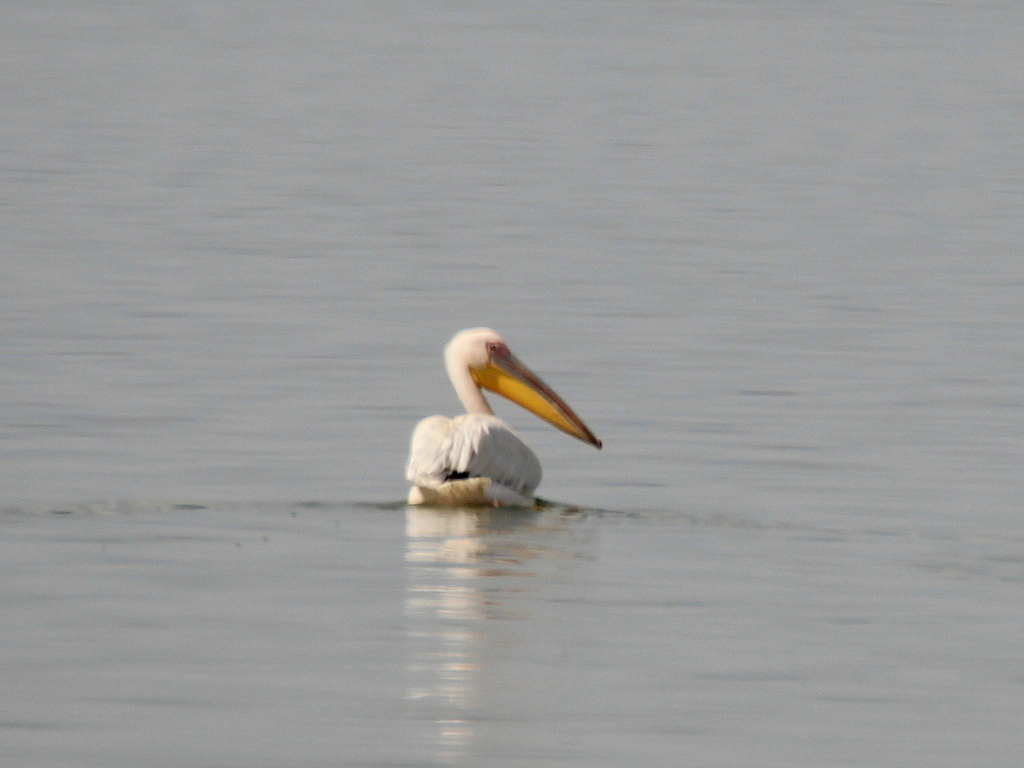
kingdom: Animalia
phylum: Chordata
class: Aves
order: Pelecaniformes
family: Pelecanidae
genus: Pelecanus
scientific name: Pelecanus onocrotalus
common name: Great white pelican
